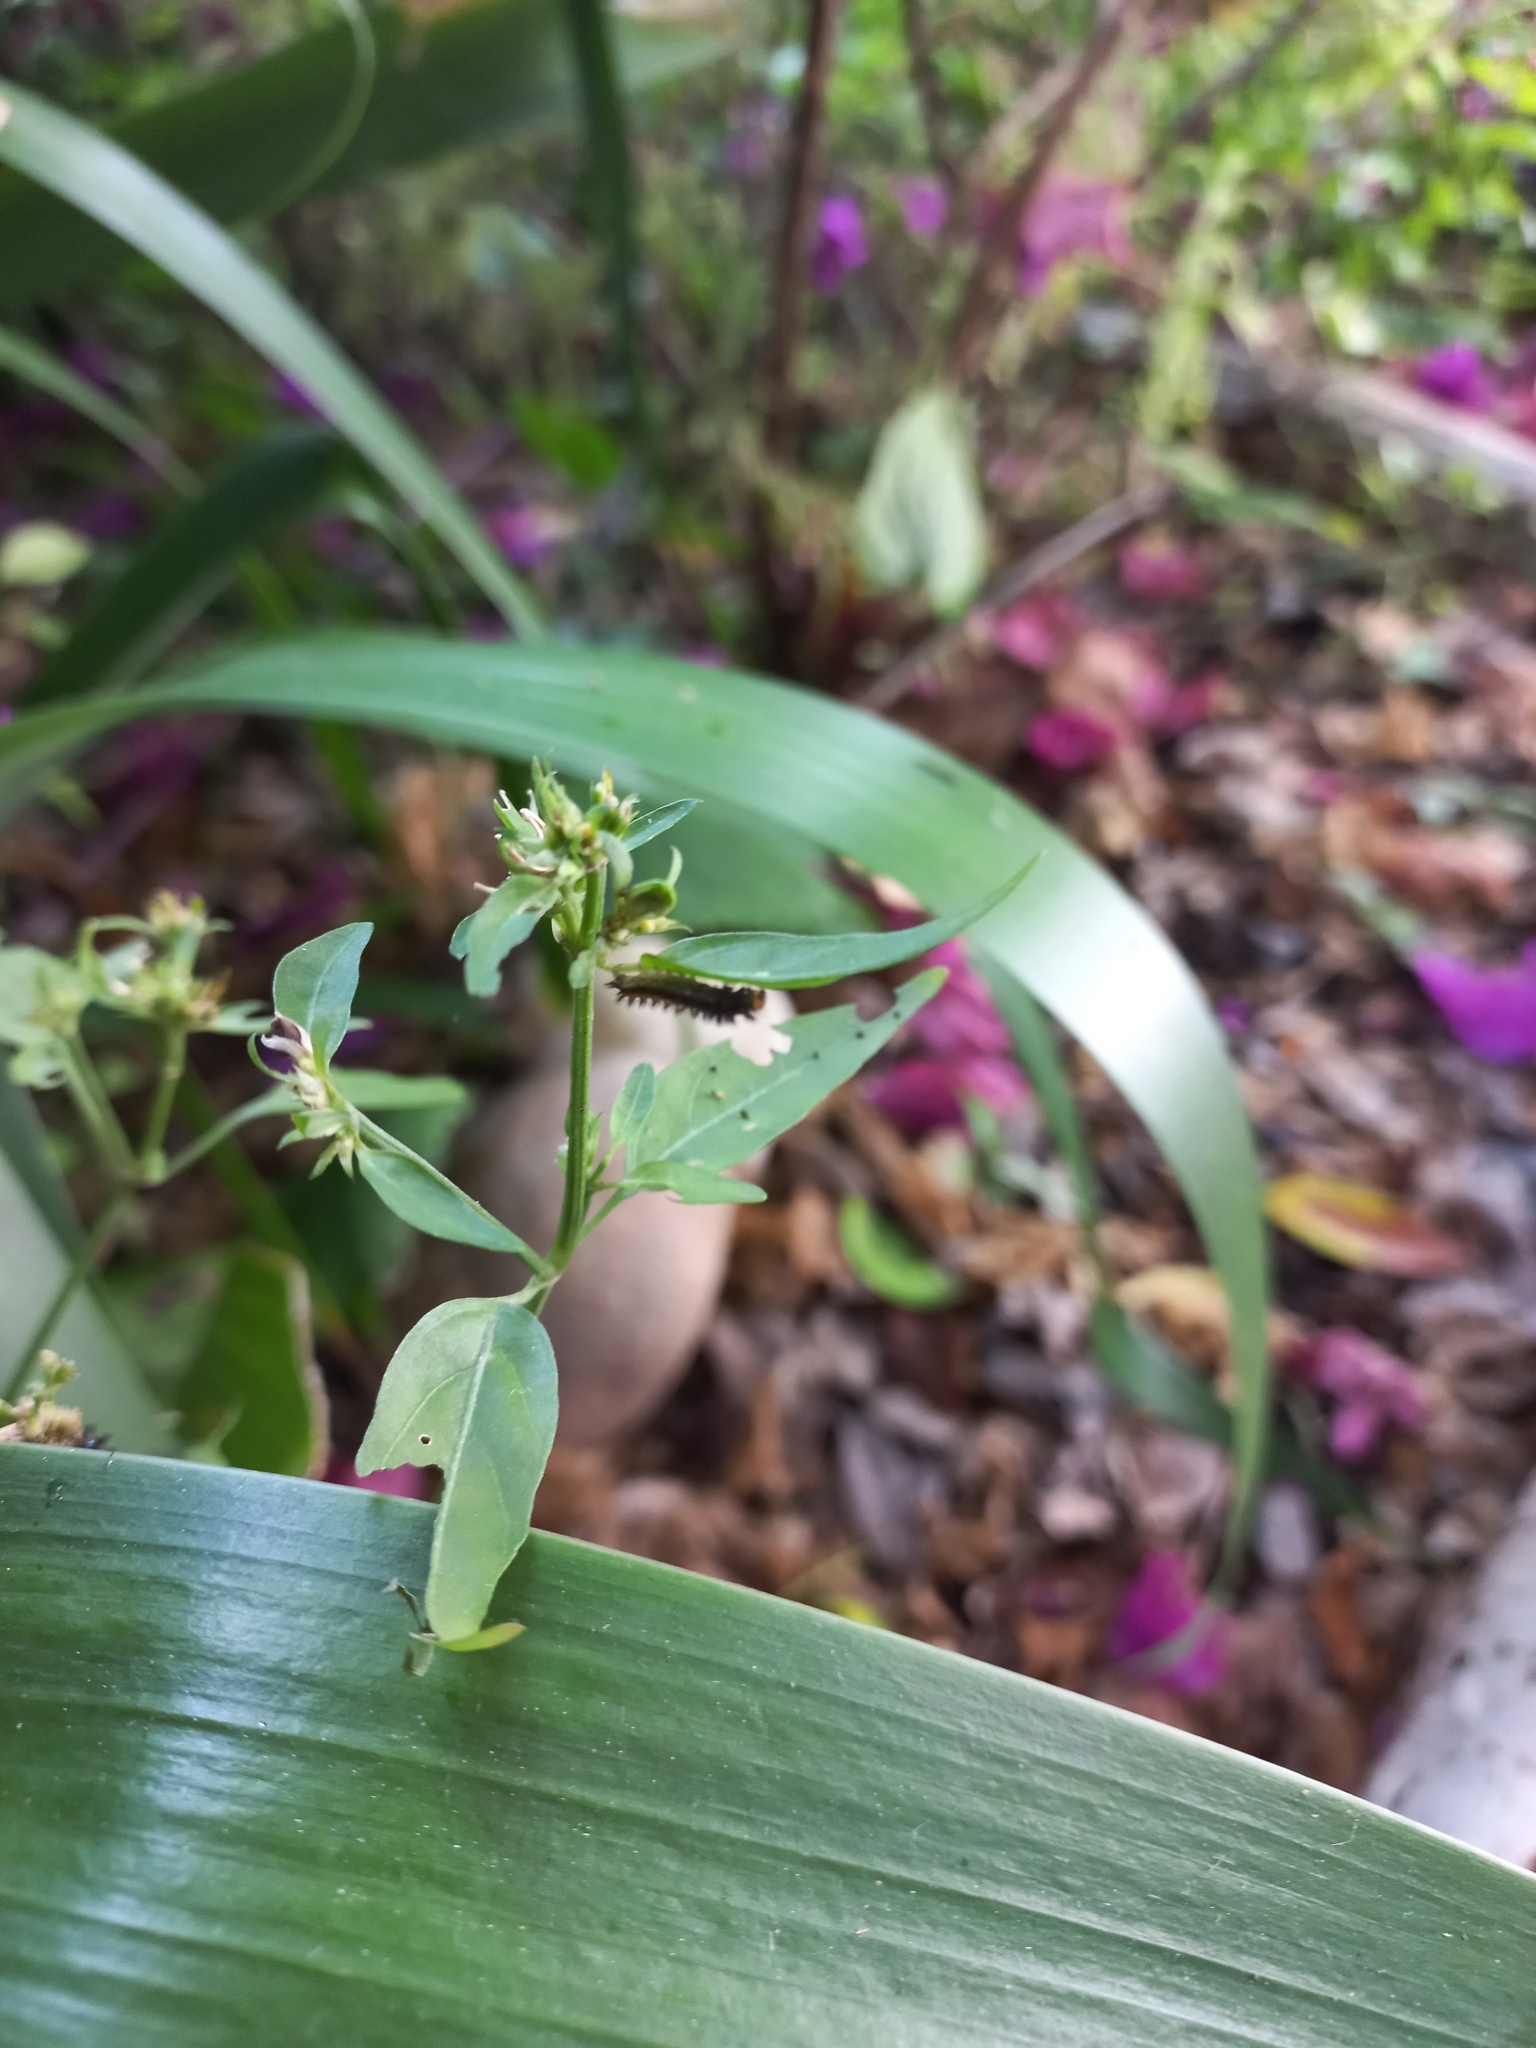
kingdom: Animalia
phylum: Arthropoda
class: Insecta
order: Lepidoptera
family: Nymphalidae
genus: Ortilia
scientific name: Ortilia ithra
